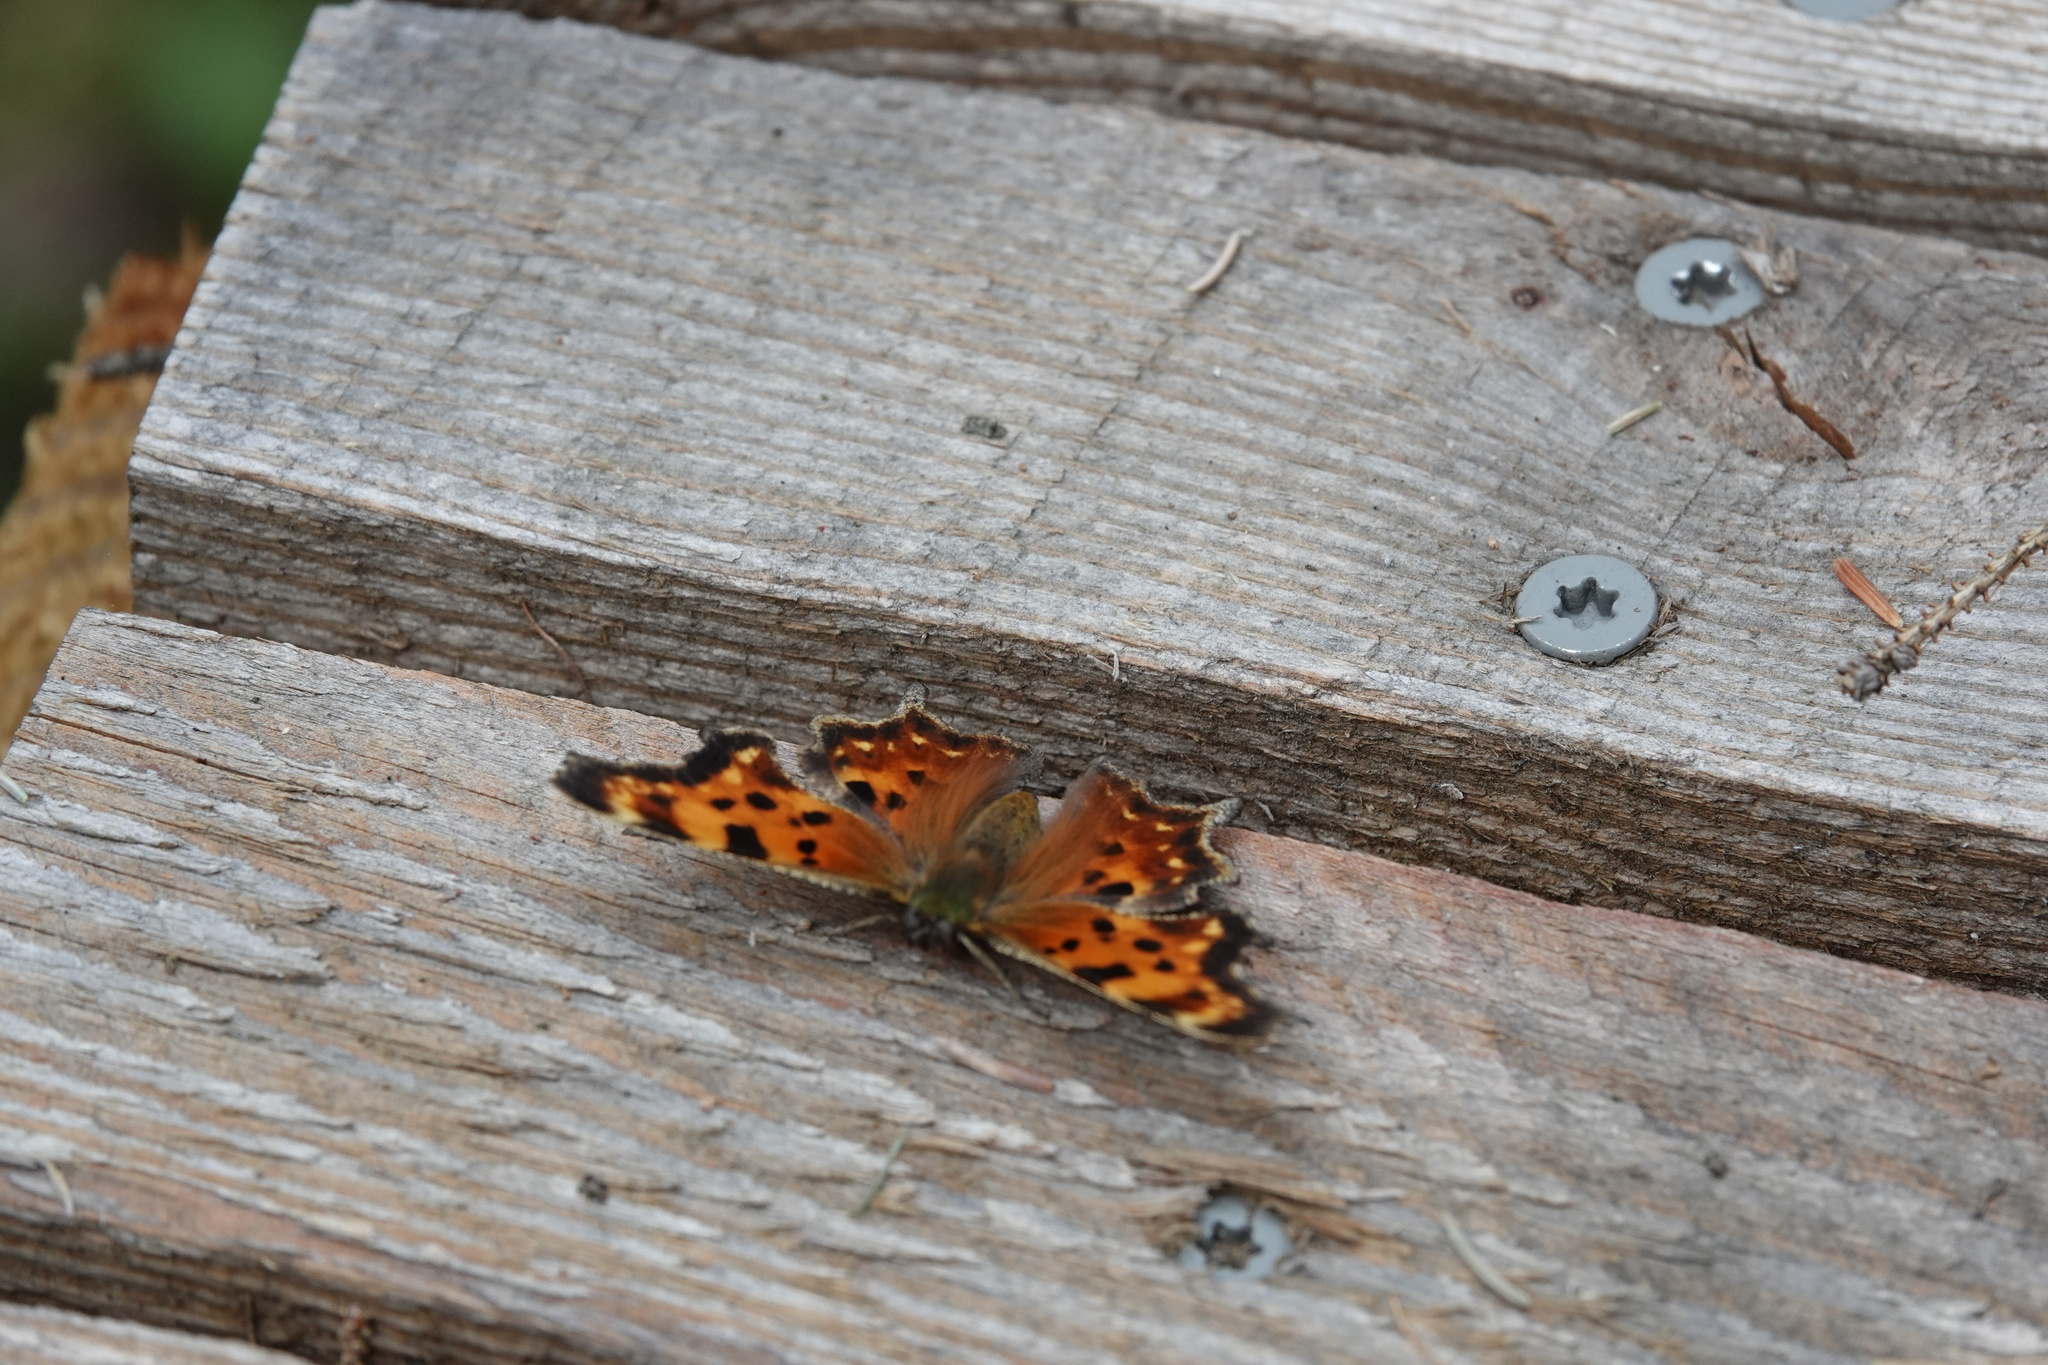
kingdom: Animalia
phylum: Arthropoda
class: Insecta
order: Lepidoptera
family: Nymphalidae
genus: Polygonia
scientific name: Polygonia faunus
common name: Green comma
